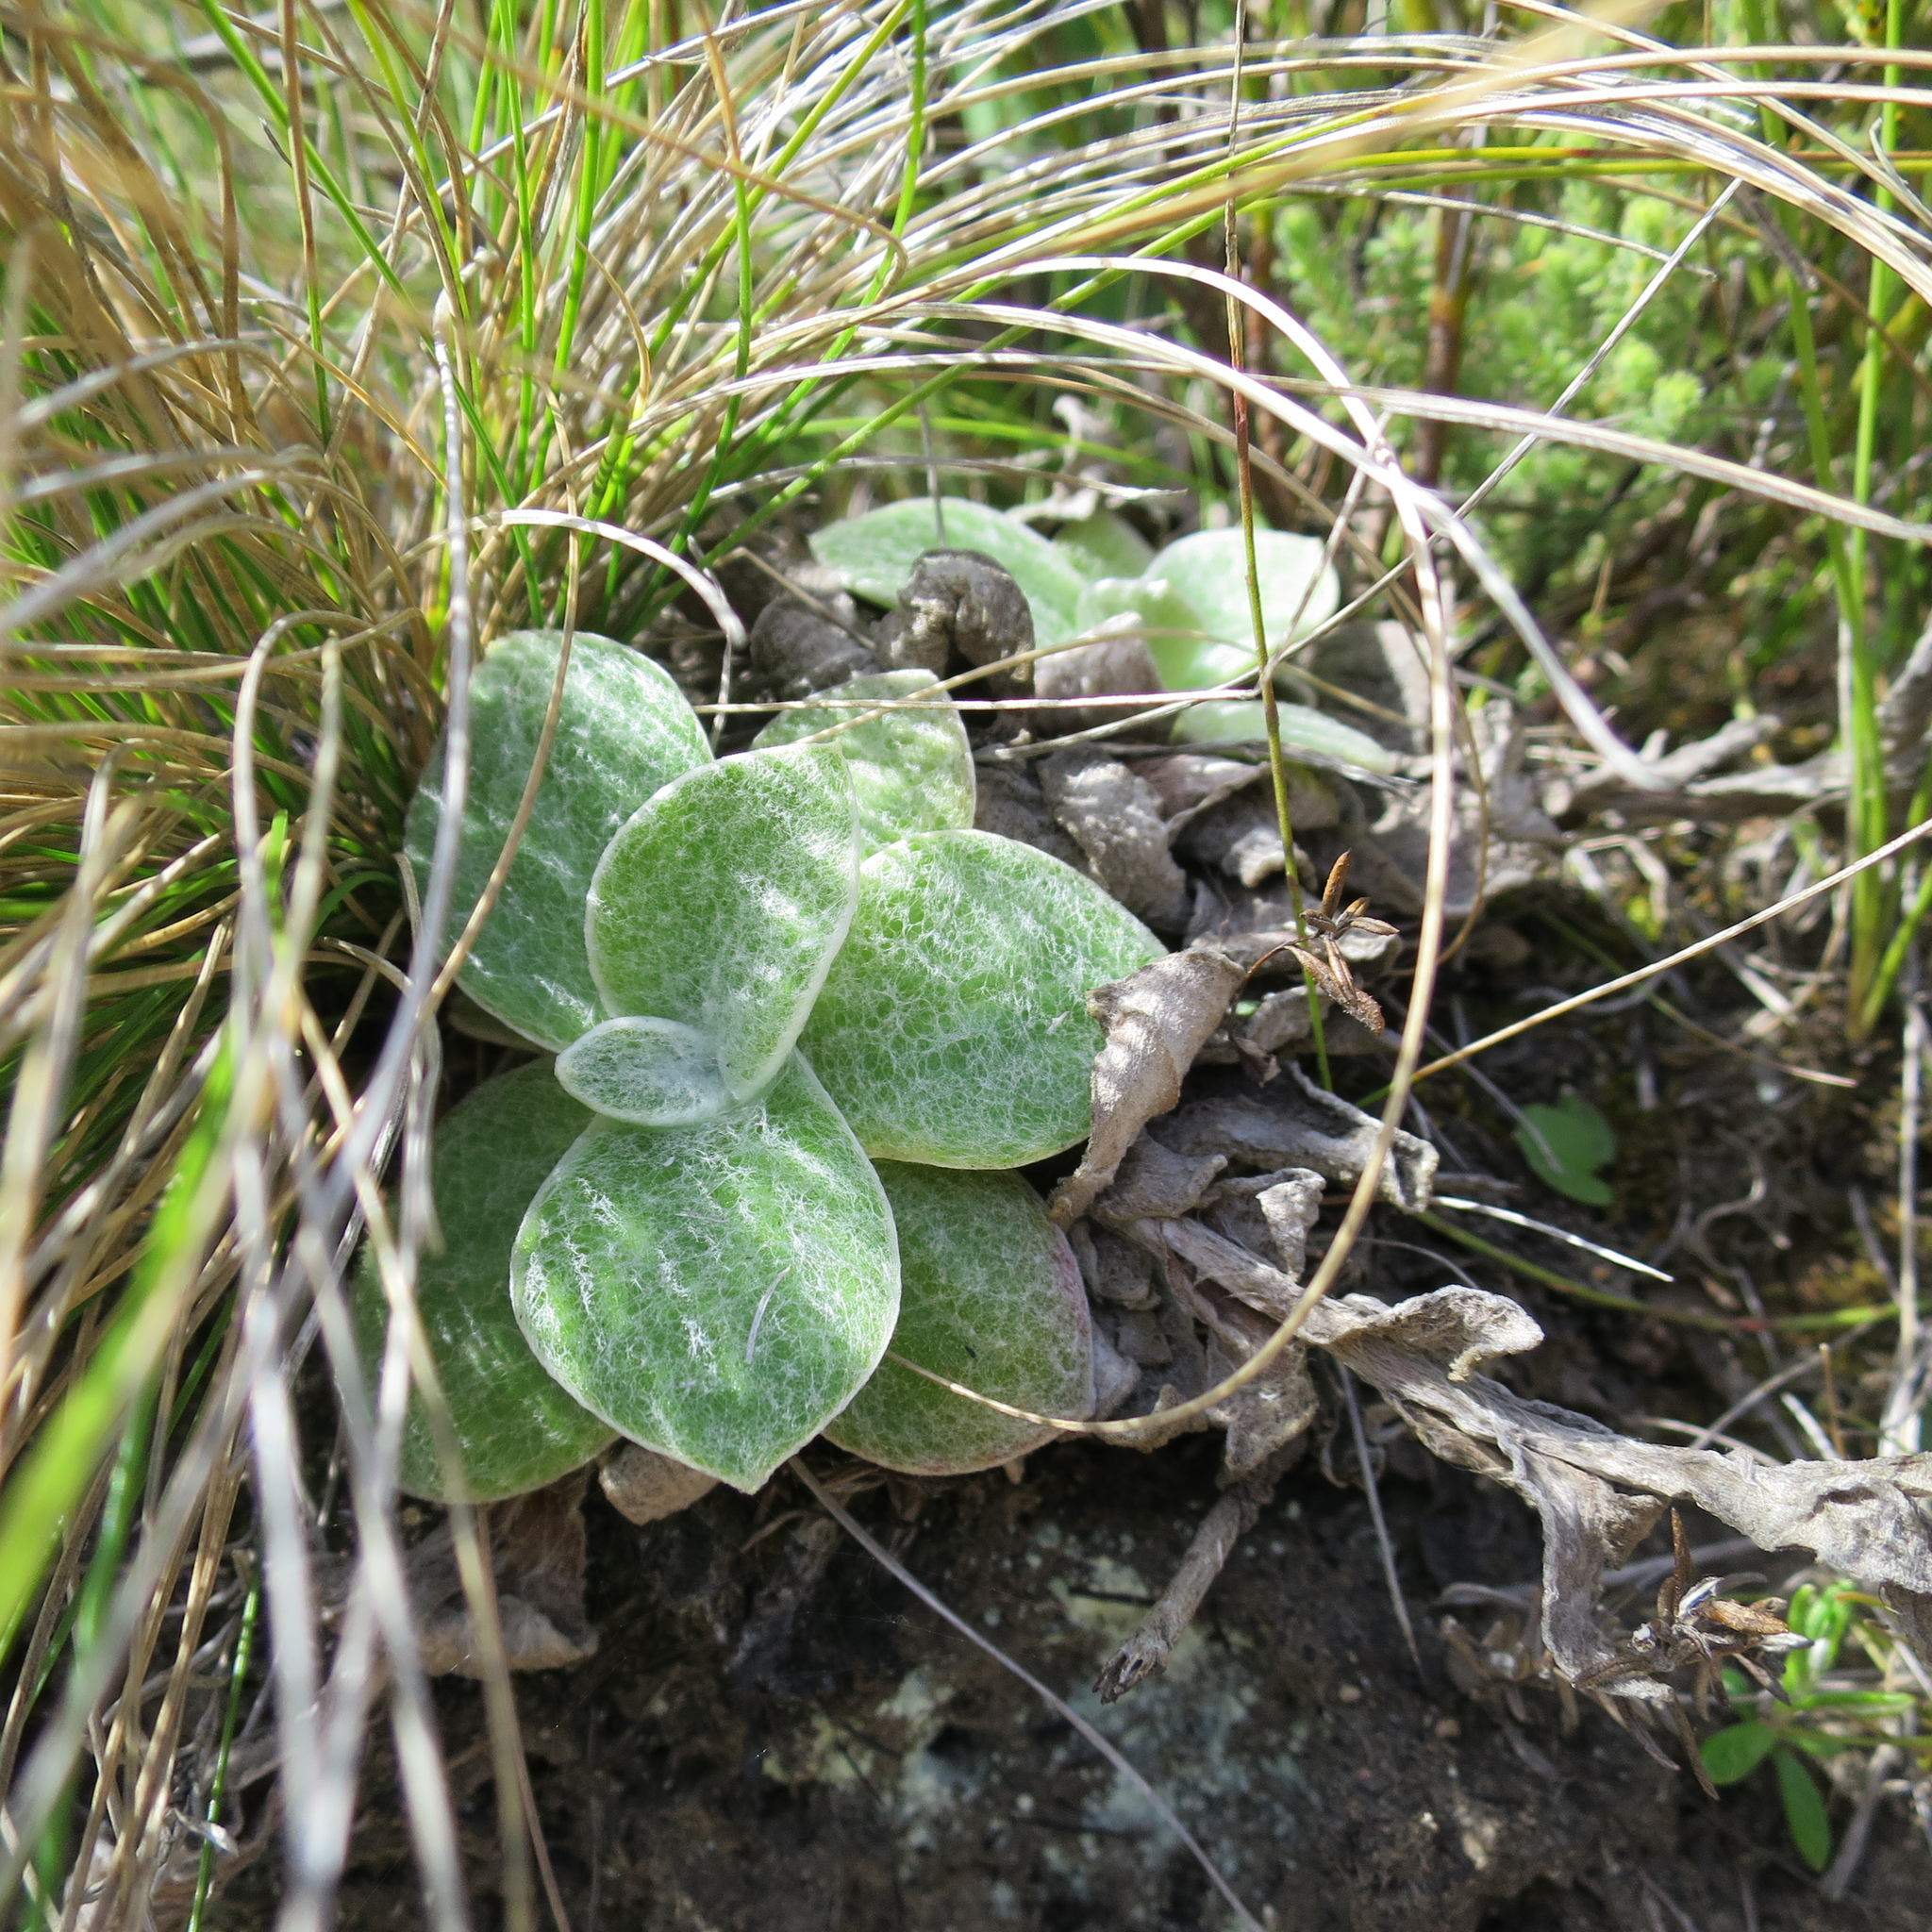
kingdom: Plantae
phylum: Tracheophyta
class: Magnoliopsida
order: Asterales
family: Asteraceae
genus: Helichrysum
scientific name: Helichrysum rotundifolium
